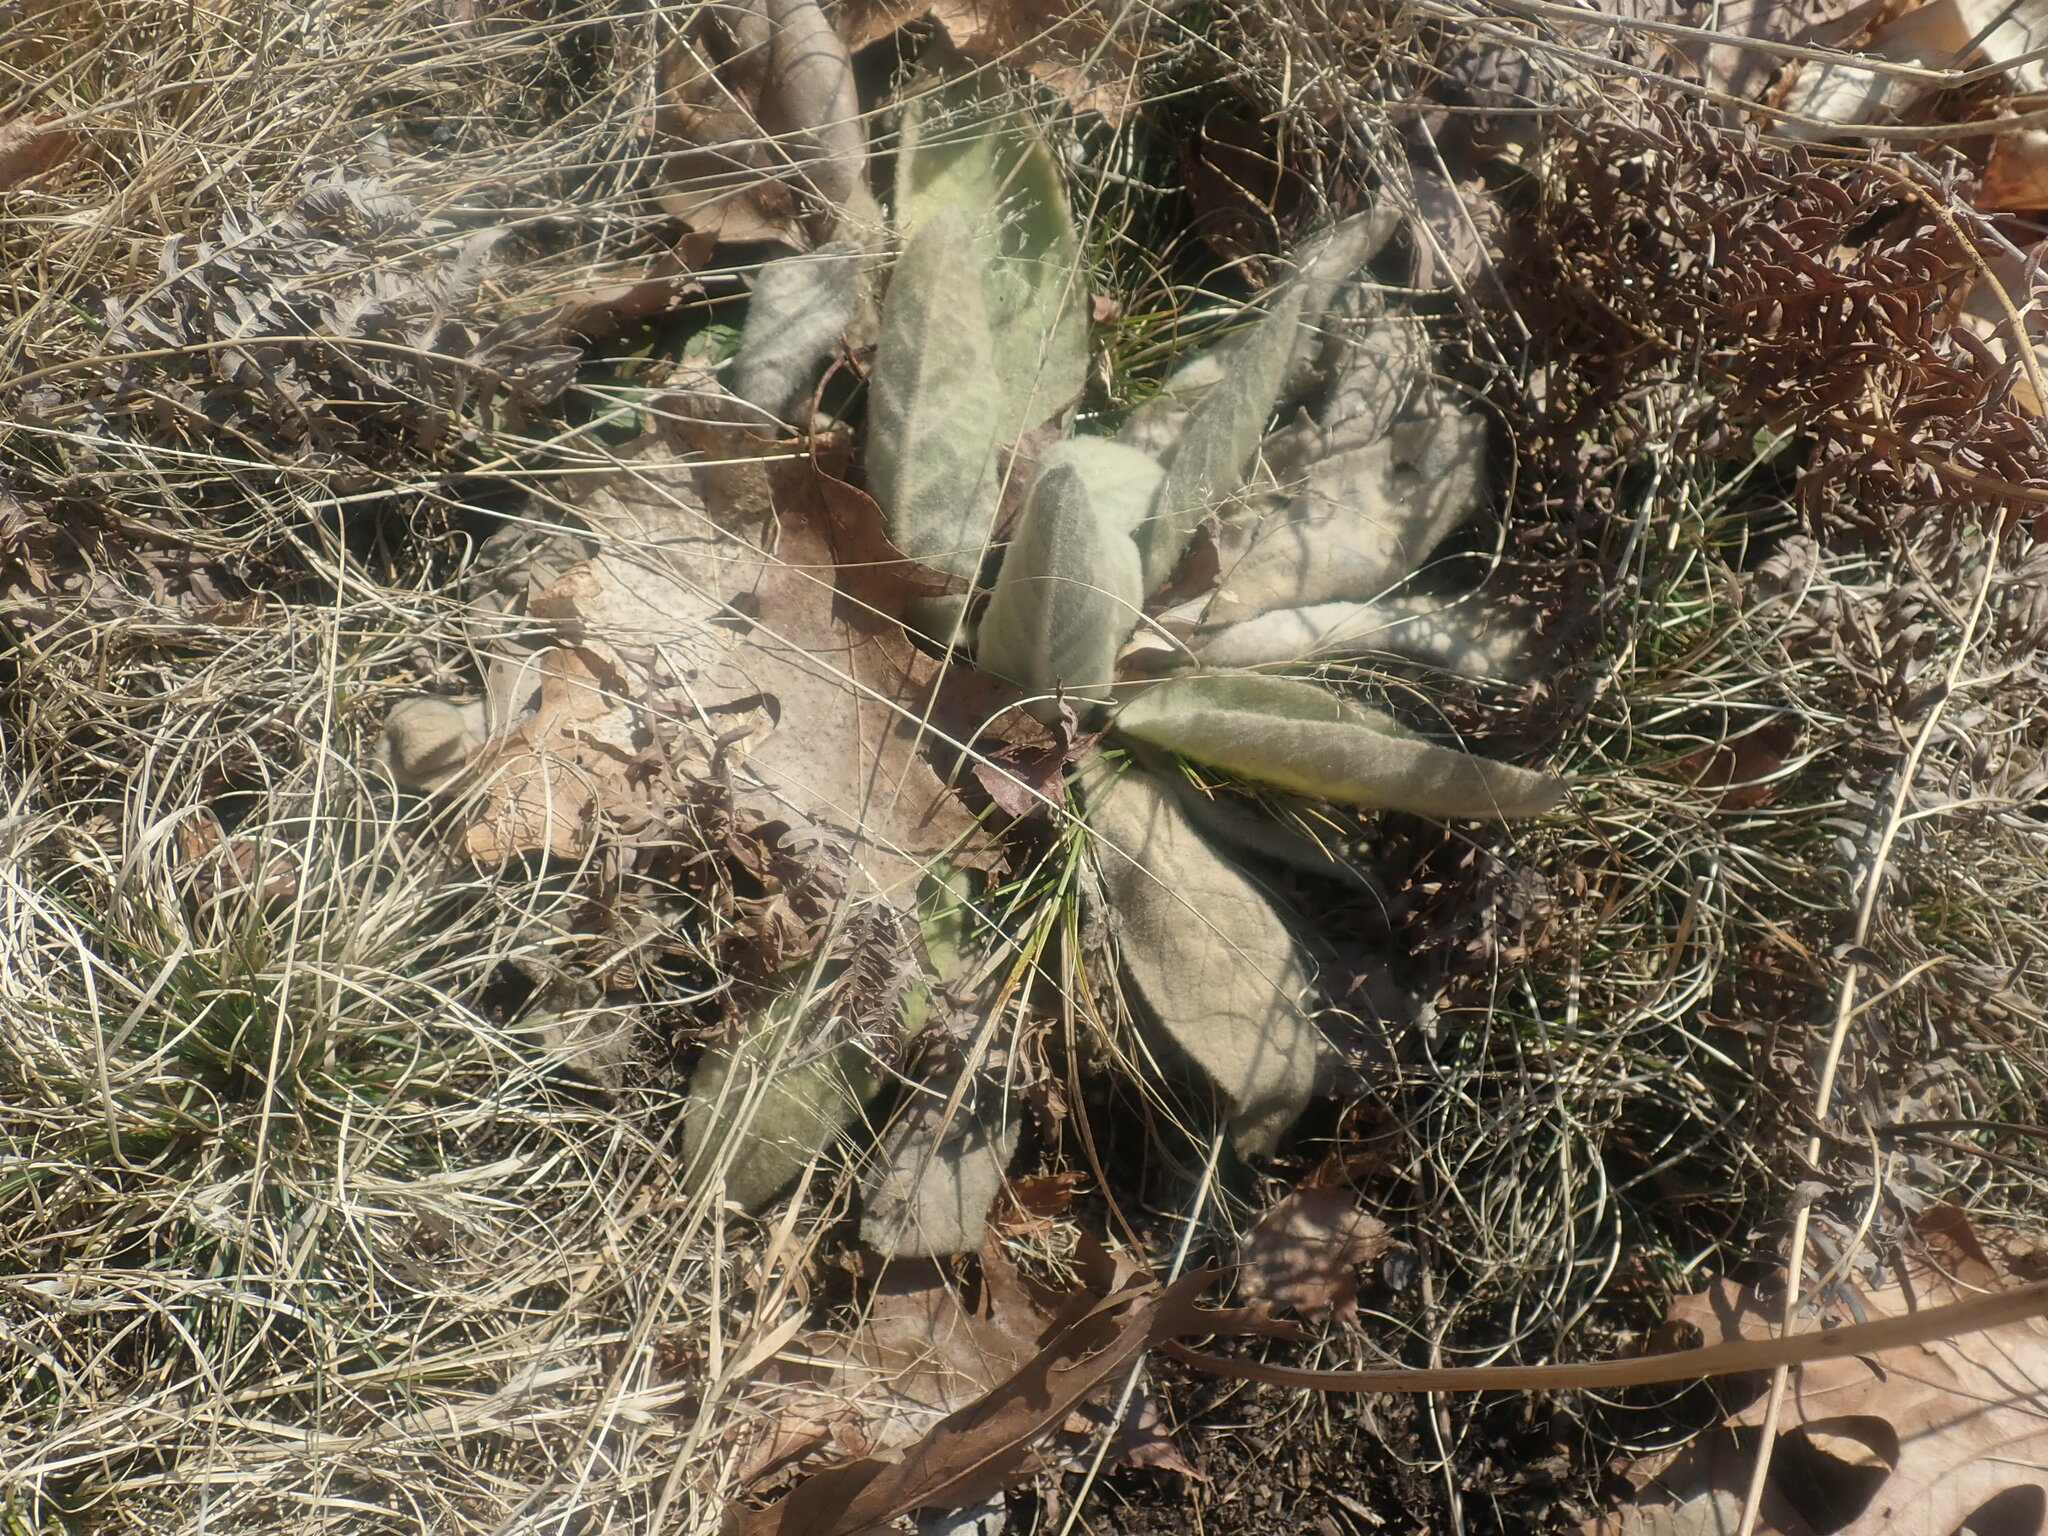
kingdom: Plantae
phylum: Tracheophyta
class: Magnoliopsida
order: Lamiales
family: Scrophulariaceae
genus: Verbascum
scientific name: Verbascum thapsus
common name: Common mullein
